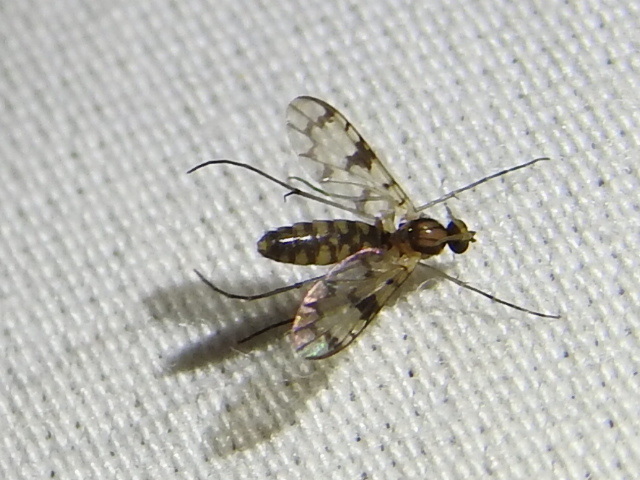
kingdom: Animalia
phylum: Arthropoda
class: Insecta
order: Diptera
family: Keroplatidae
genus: Proceroplatus
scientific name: Proceroplatus
